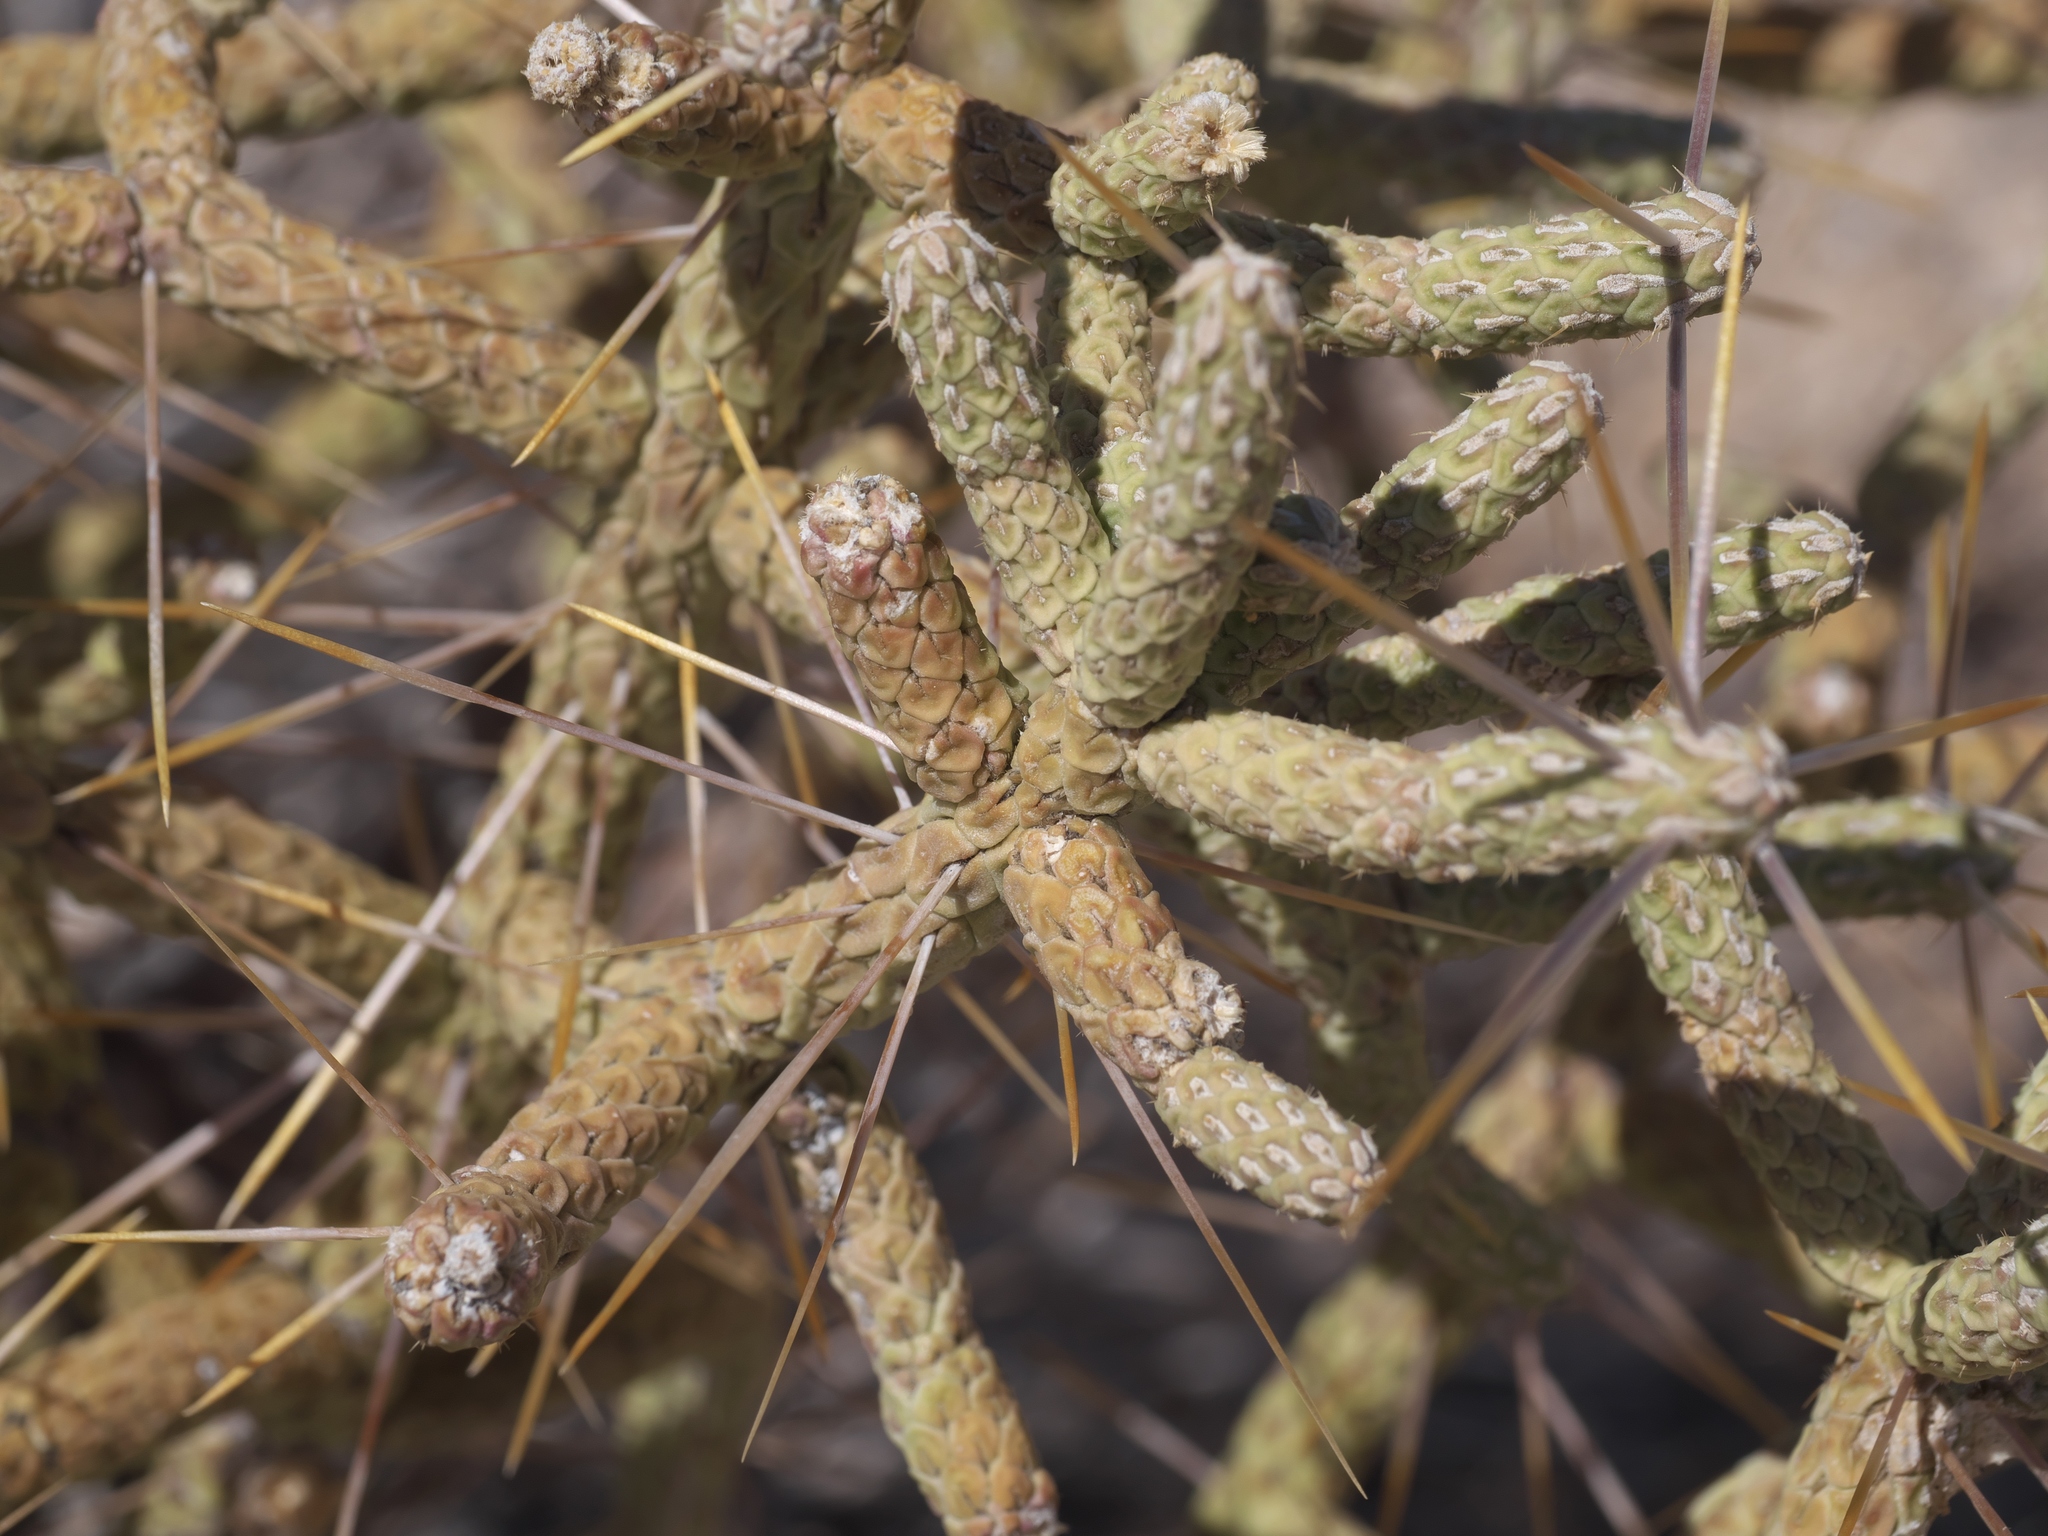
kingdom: Plantae
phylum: Tracheophyta
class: Magnoliopsida
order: Caryophyllales
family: Cactaceae
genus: Cylindropuntia
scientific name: Cylindropuntia ramosissima
